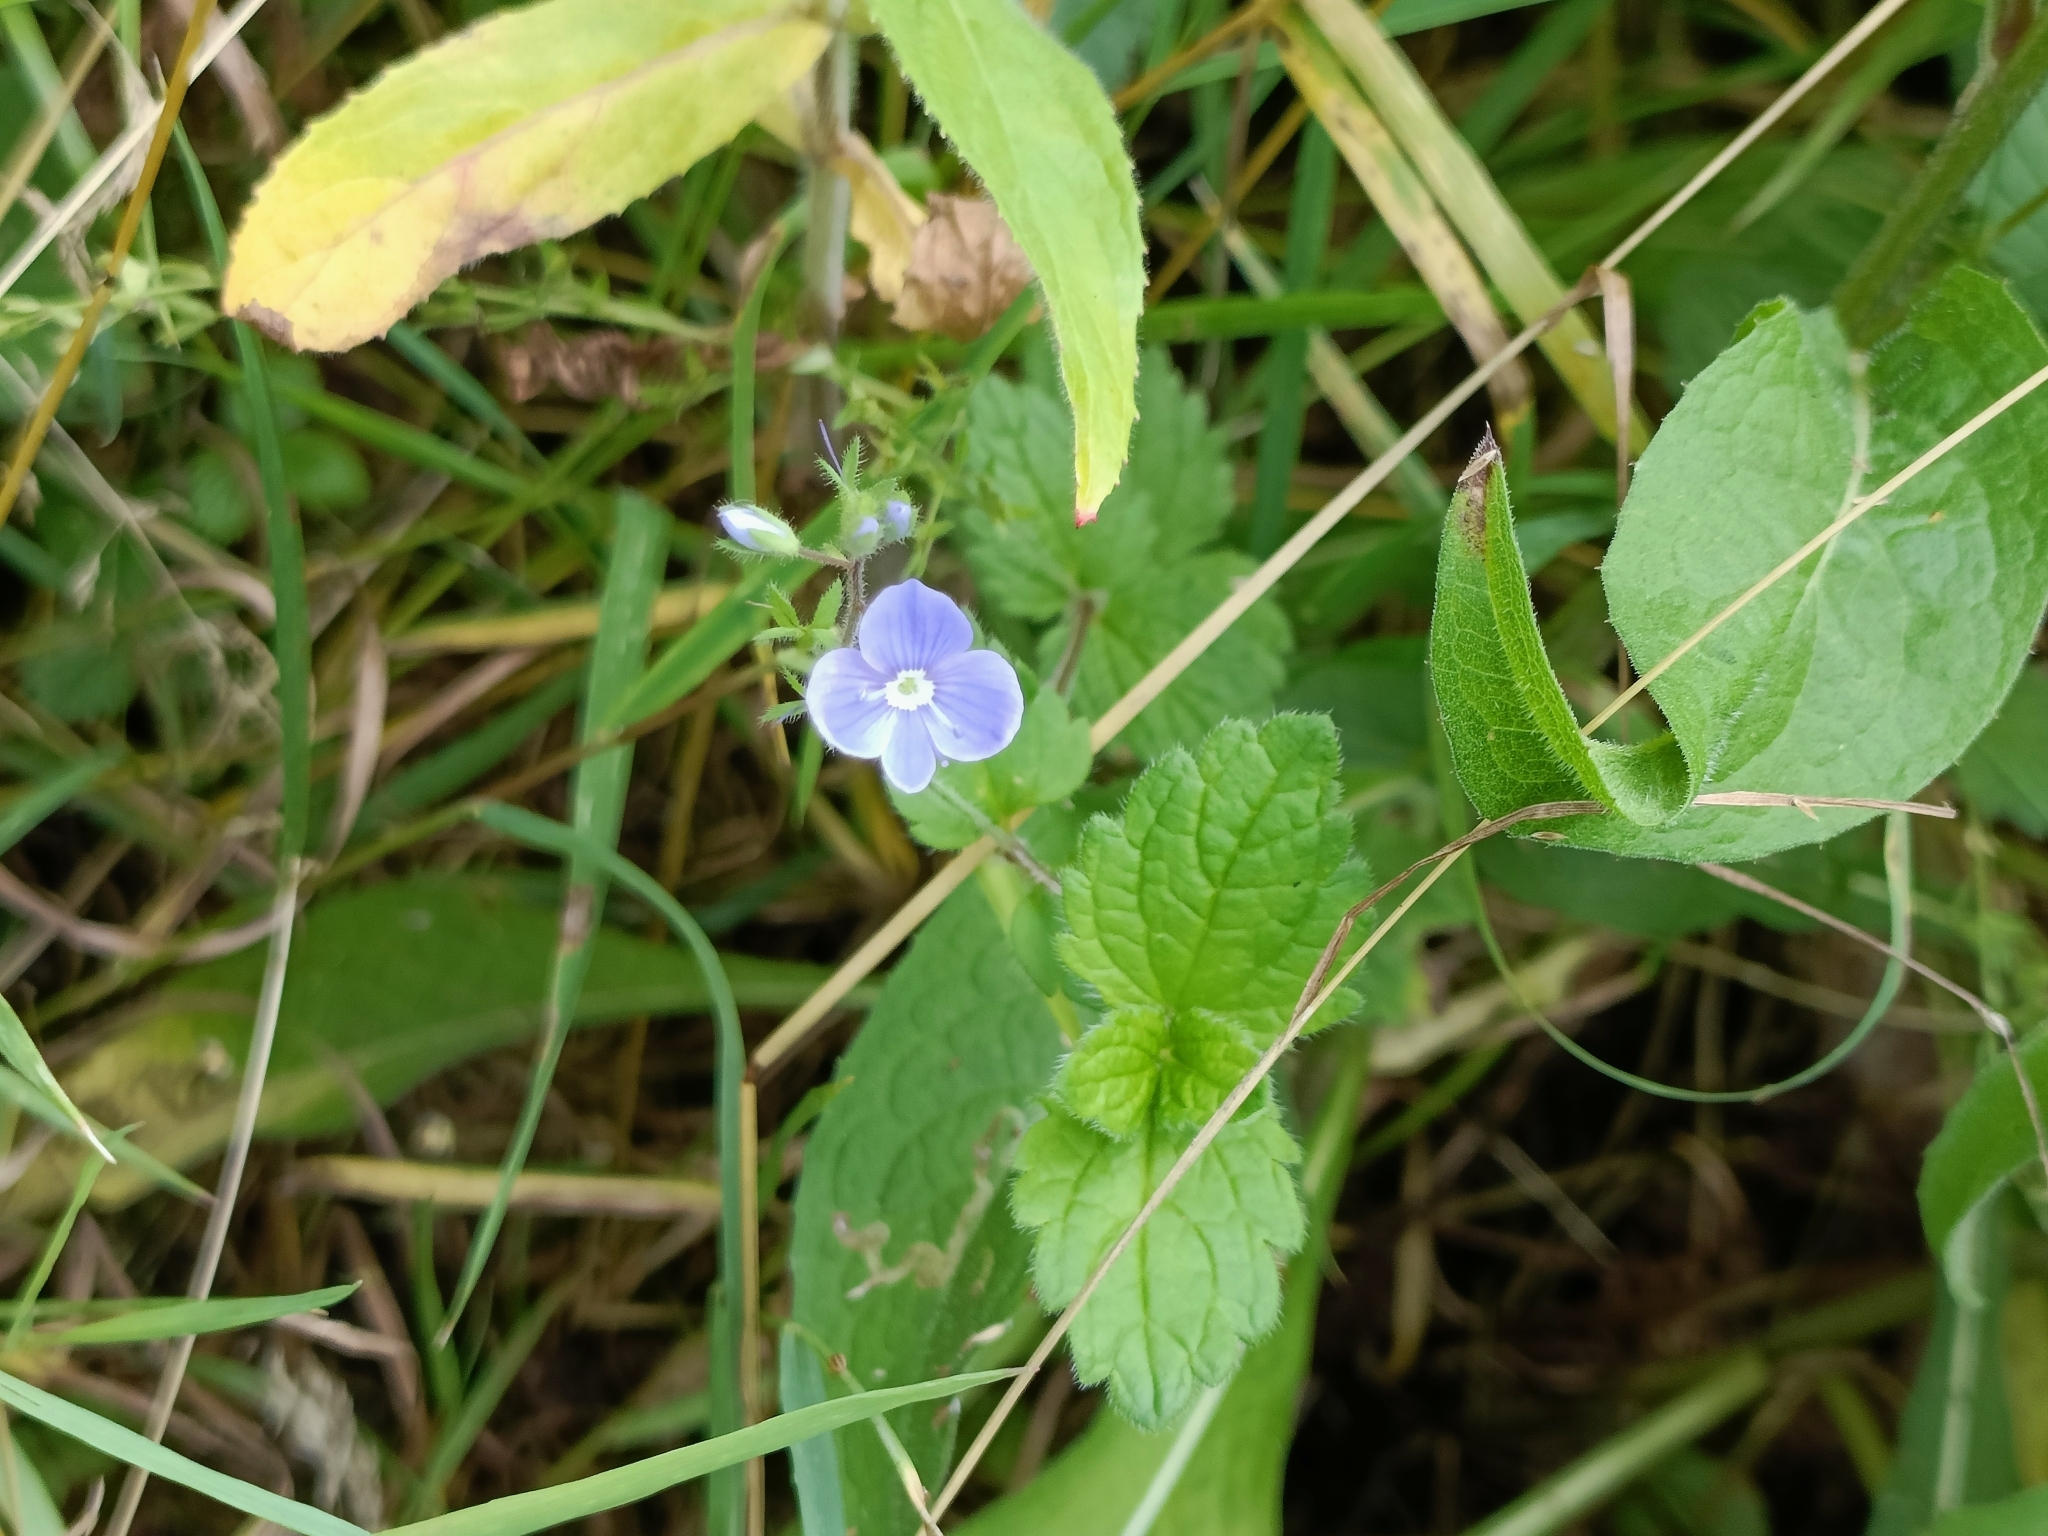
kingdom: Plantae
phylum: Tracheophyta
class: Magnoliopsida
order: Lamiales
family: Plantaginaceae
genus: Veronica
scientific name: Veronica chamaedrys
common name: Germander speedwell
